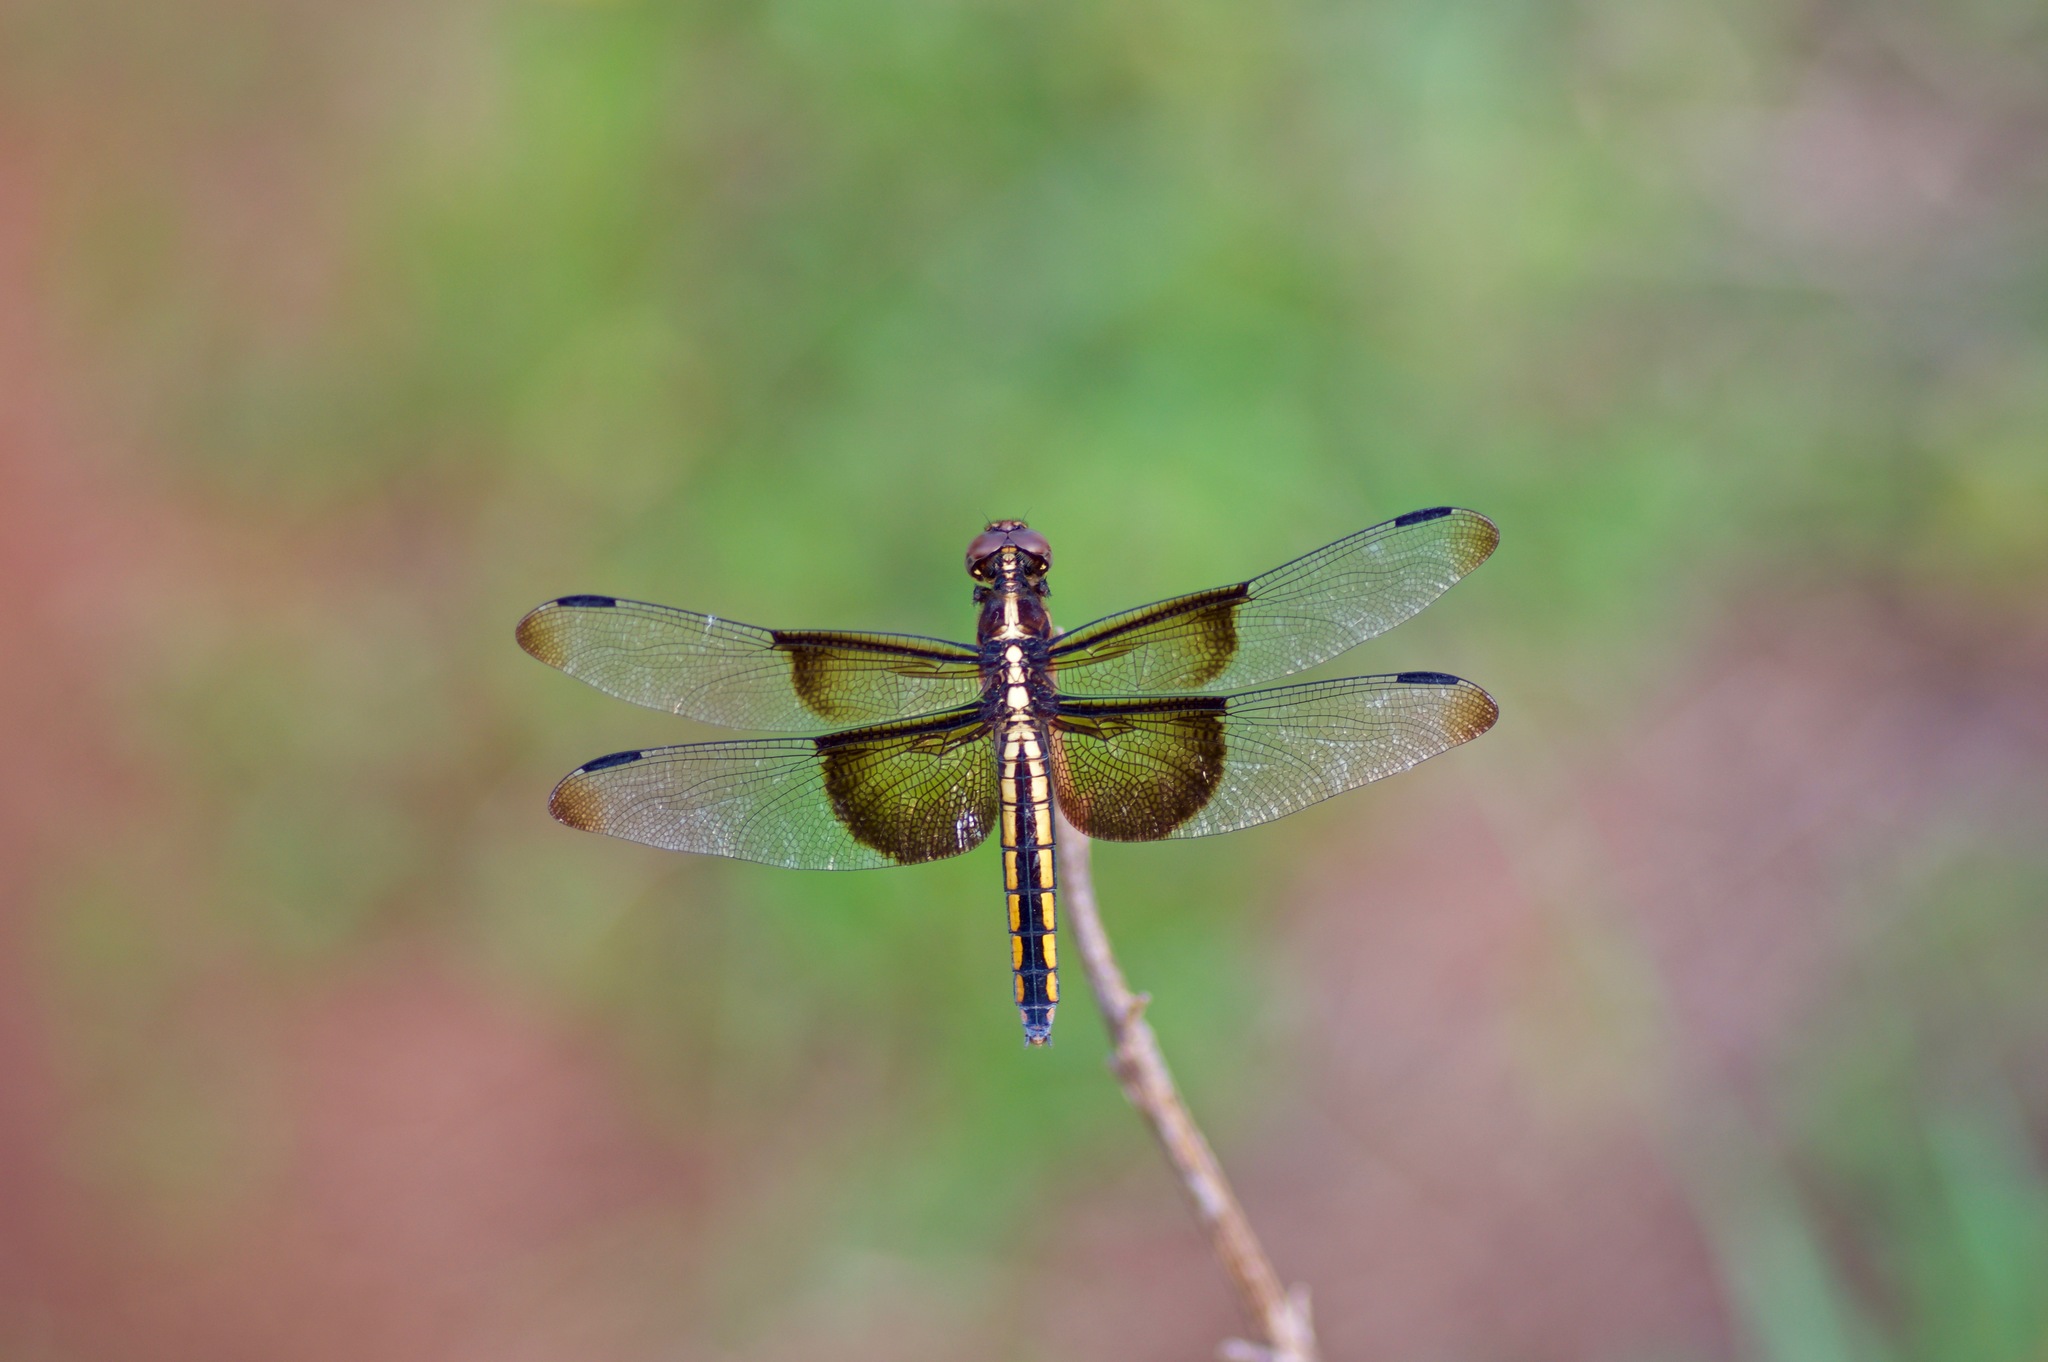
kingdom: Animalia
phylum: Arthropoda
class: Insecta
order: Odonata
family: Libellulidae
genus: Libellula
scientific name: Libellula luctuosa
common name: Widow skimmer
